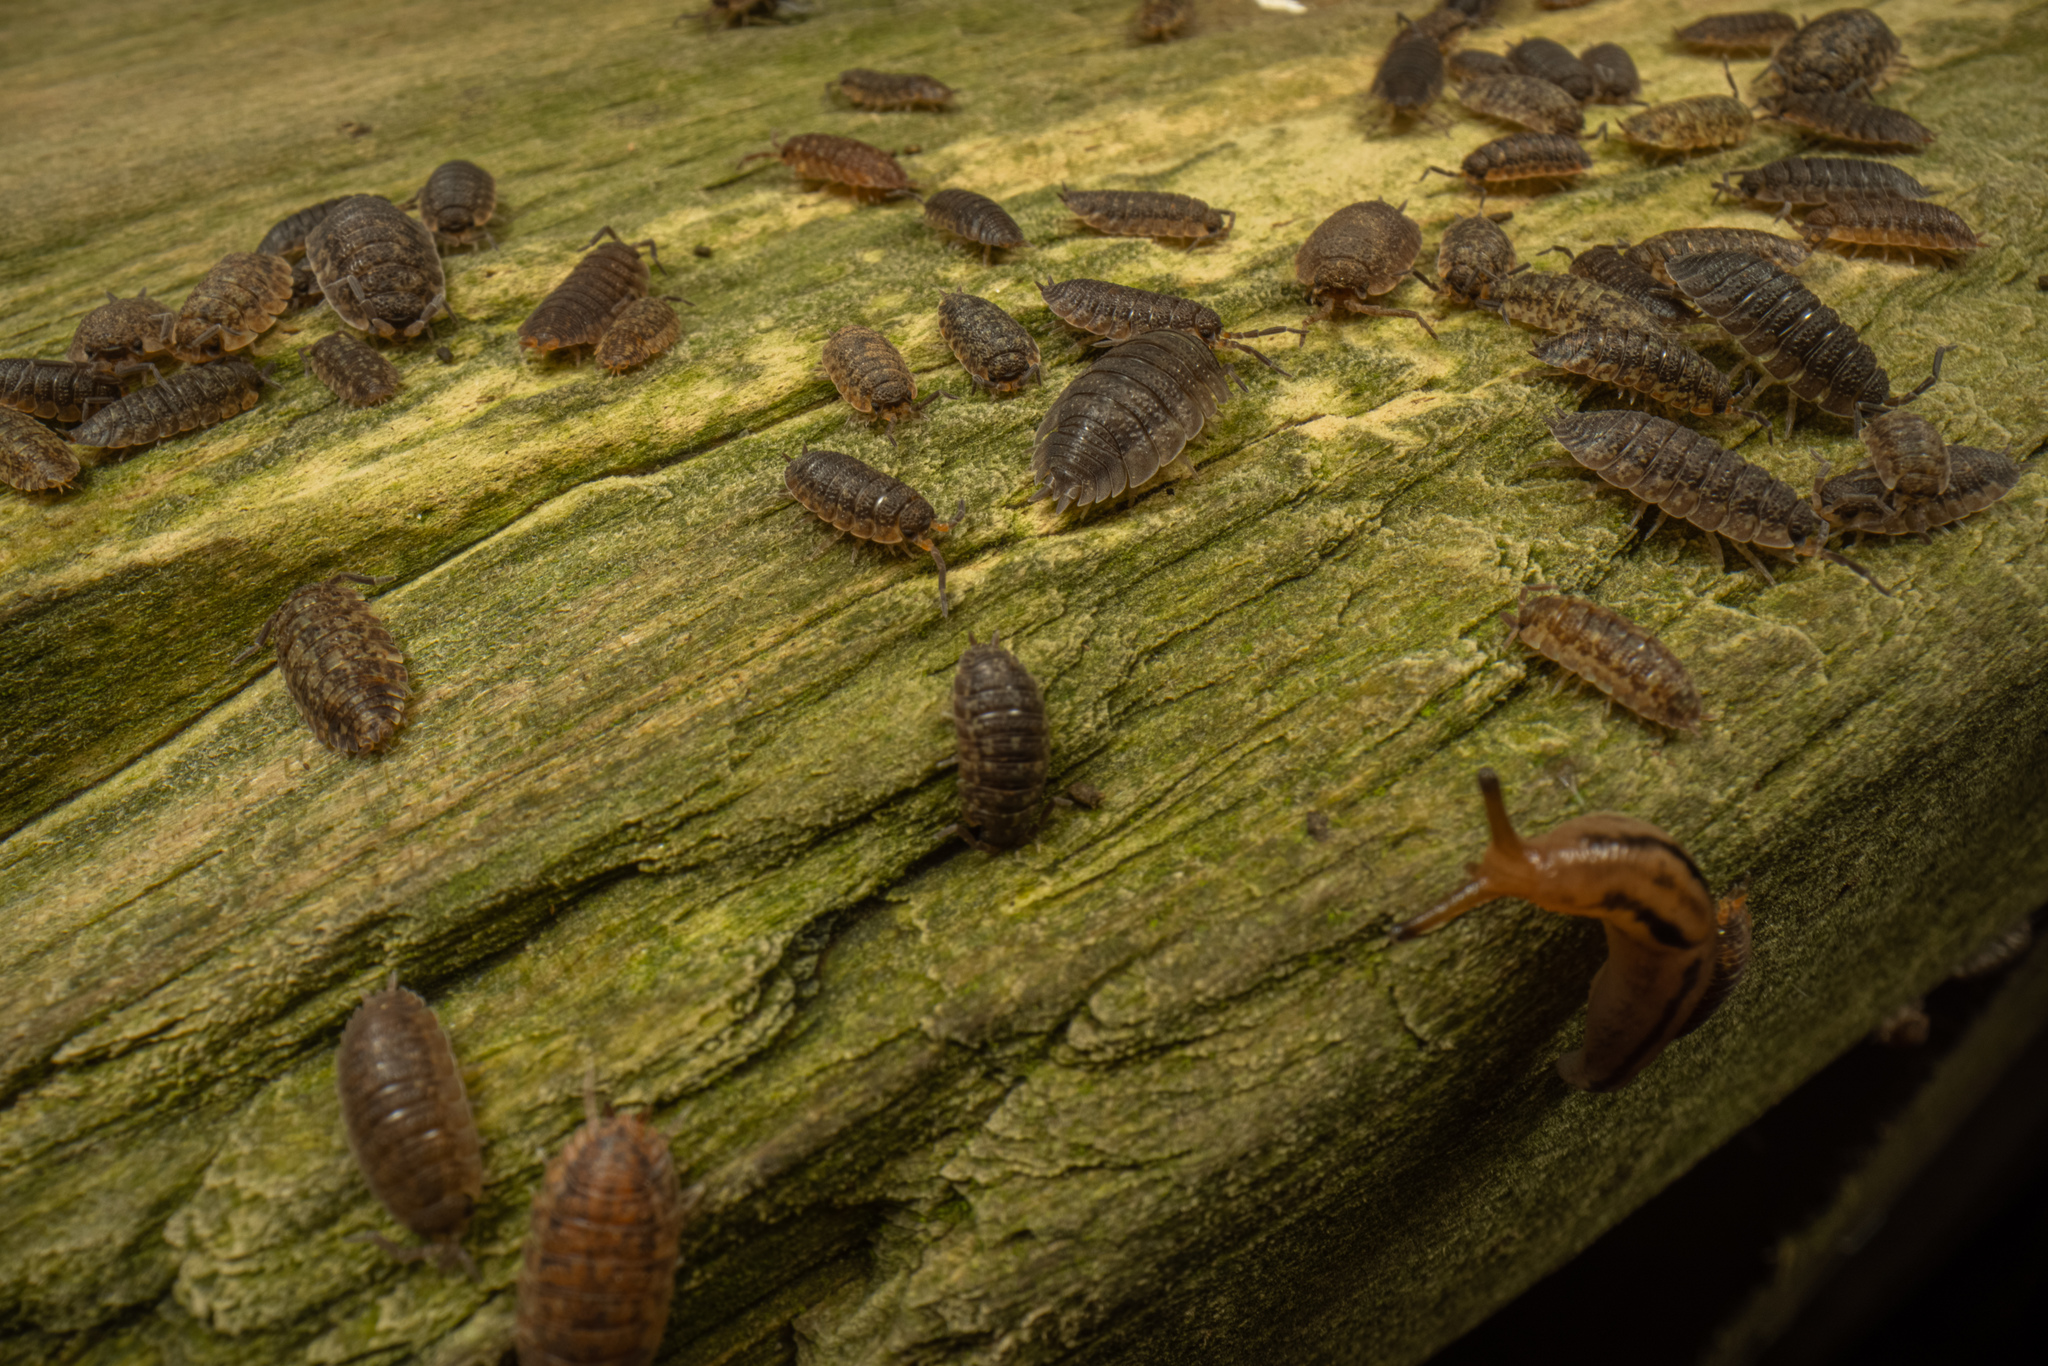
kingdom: Animalia
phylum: Arthropoda
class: Malacostraca
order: Isopoda
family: Porcellionidae
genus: Porcellio
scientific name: Porcellio scaber
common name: Common rough woodlouse
